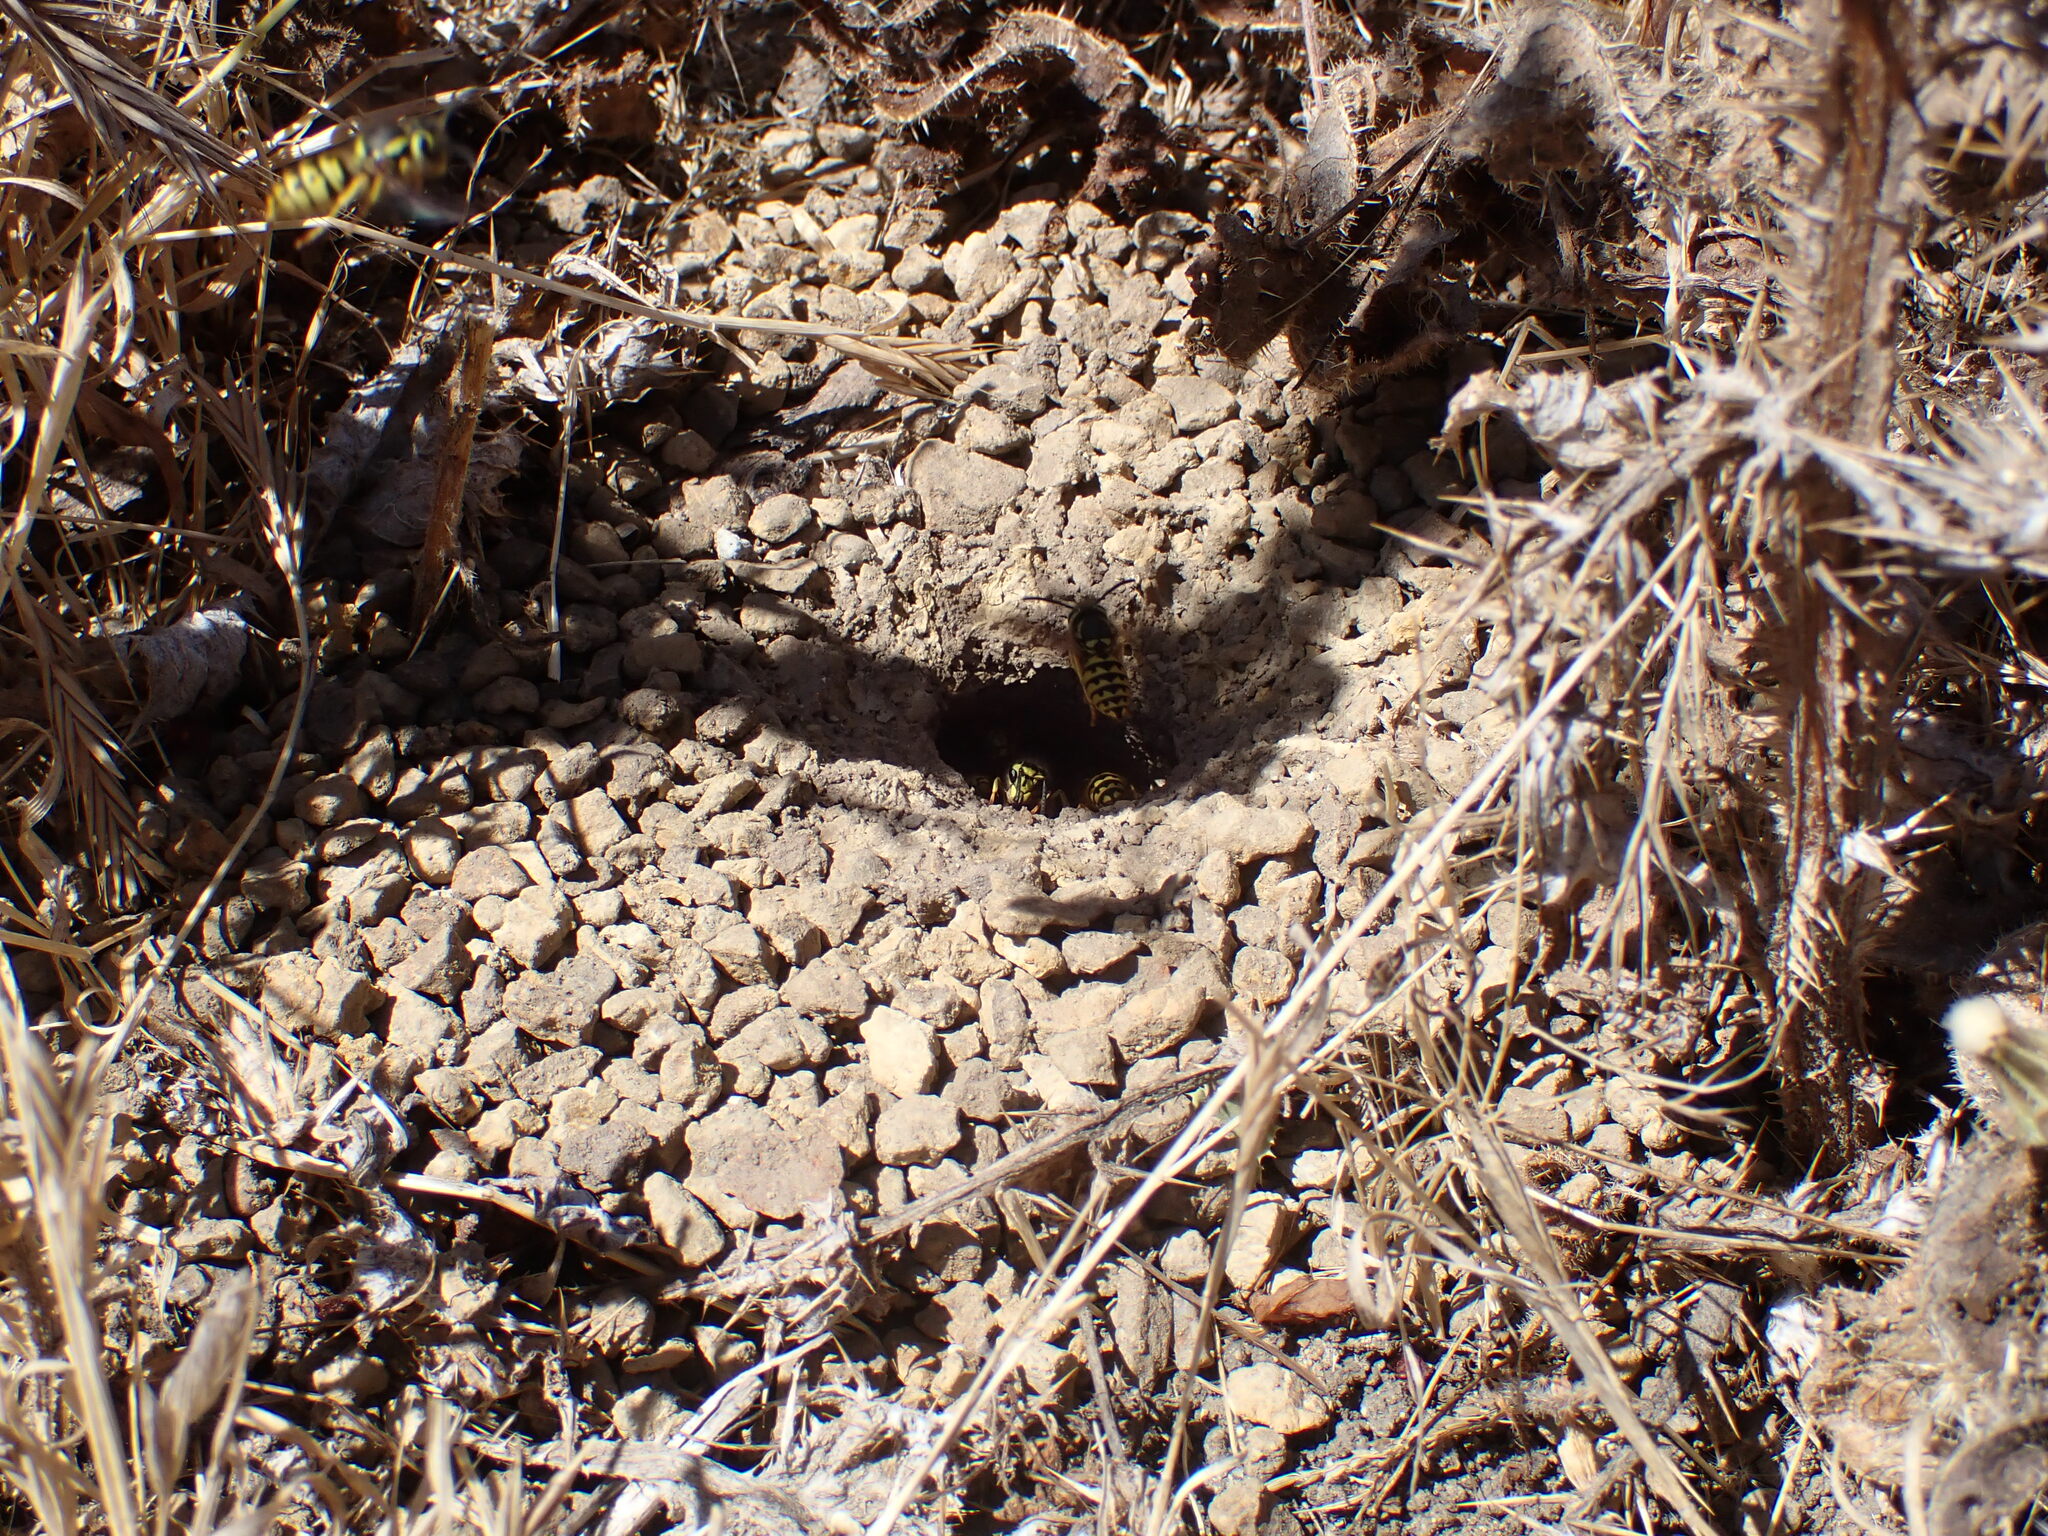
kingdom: Animalia
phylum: Arthropoda
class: Insecta
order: Hymenoptera
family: Vespidae
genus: Vespula
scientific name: Vespula pensylvanica
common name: Western yellowjacket
